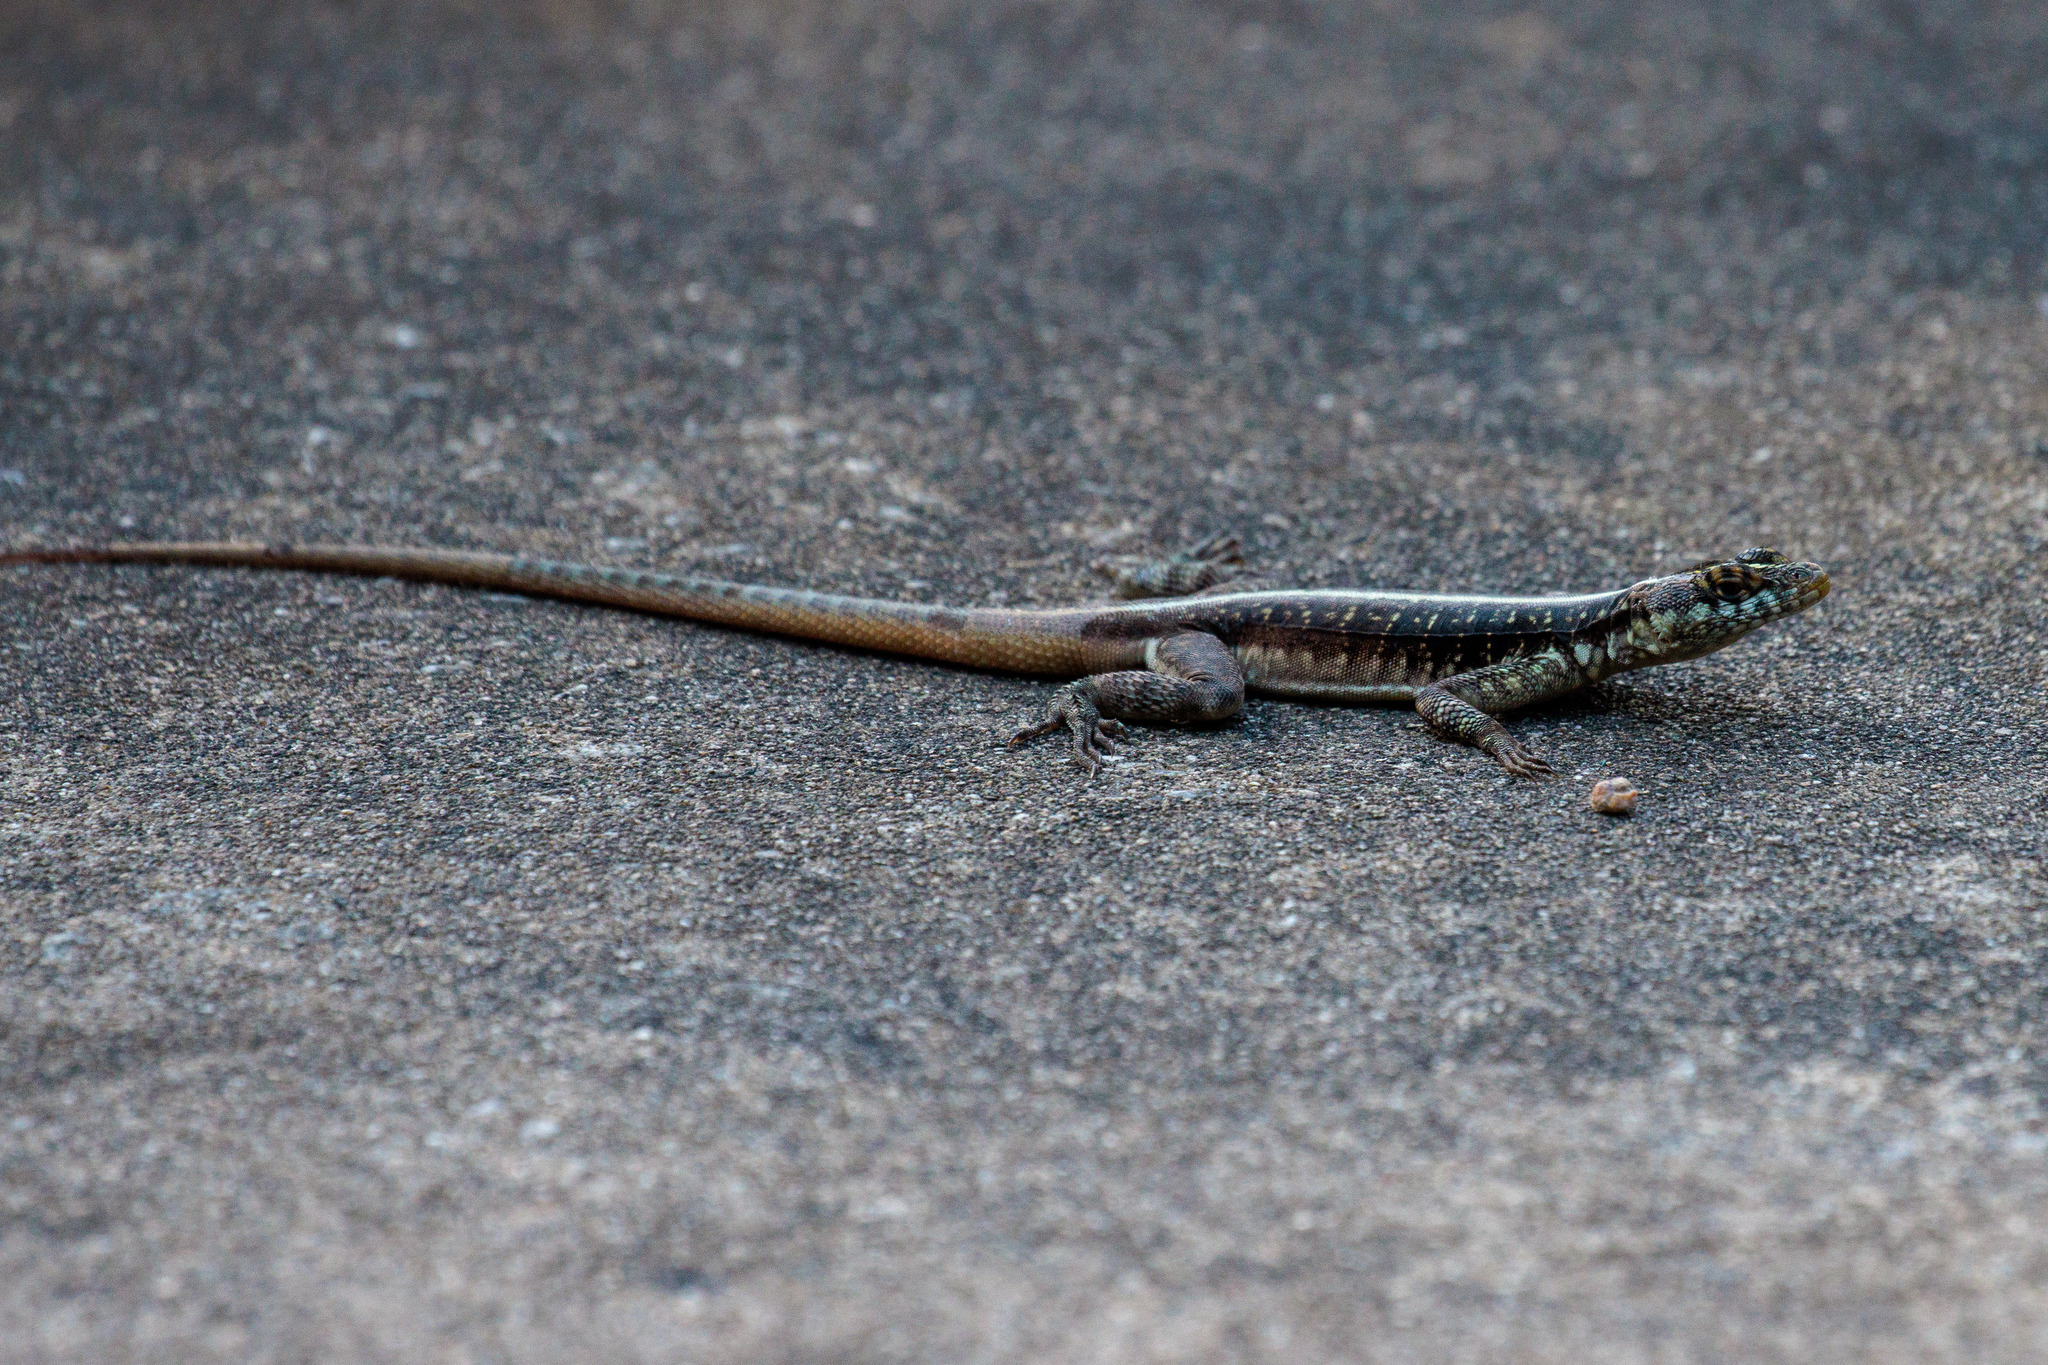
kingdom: Animalia
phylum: Chordata
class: Squamata
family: Tropiduridae
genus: Tropidurus
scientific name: Tropidurus semitaeniatus
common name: Striped lava lizard
